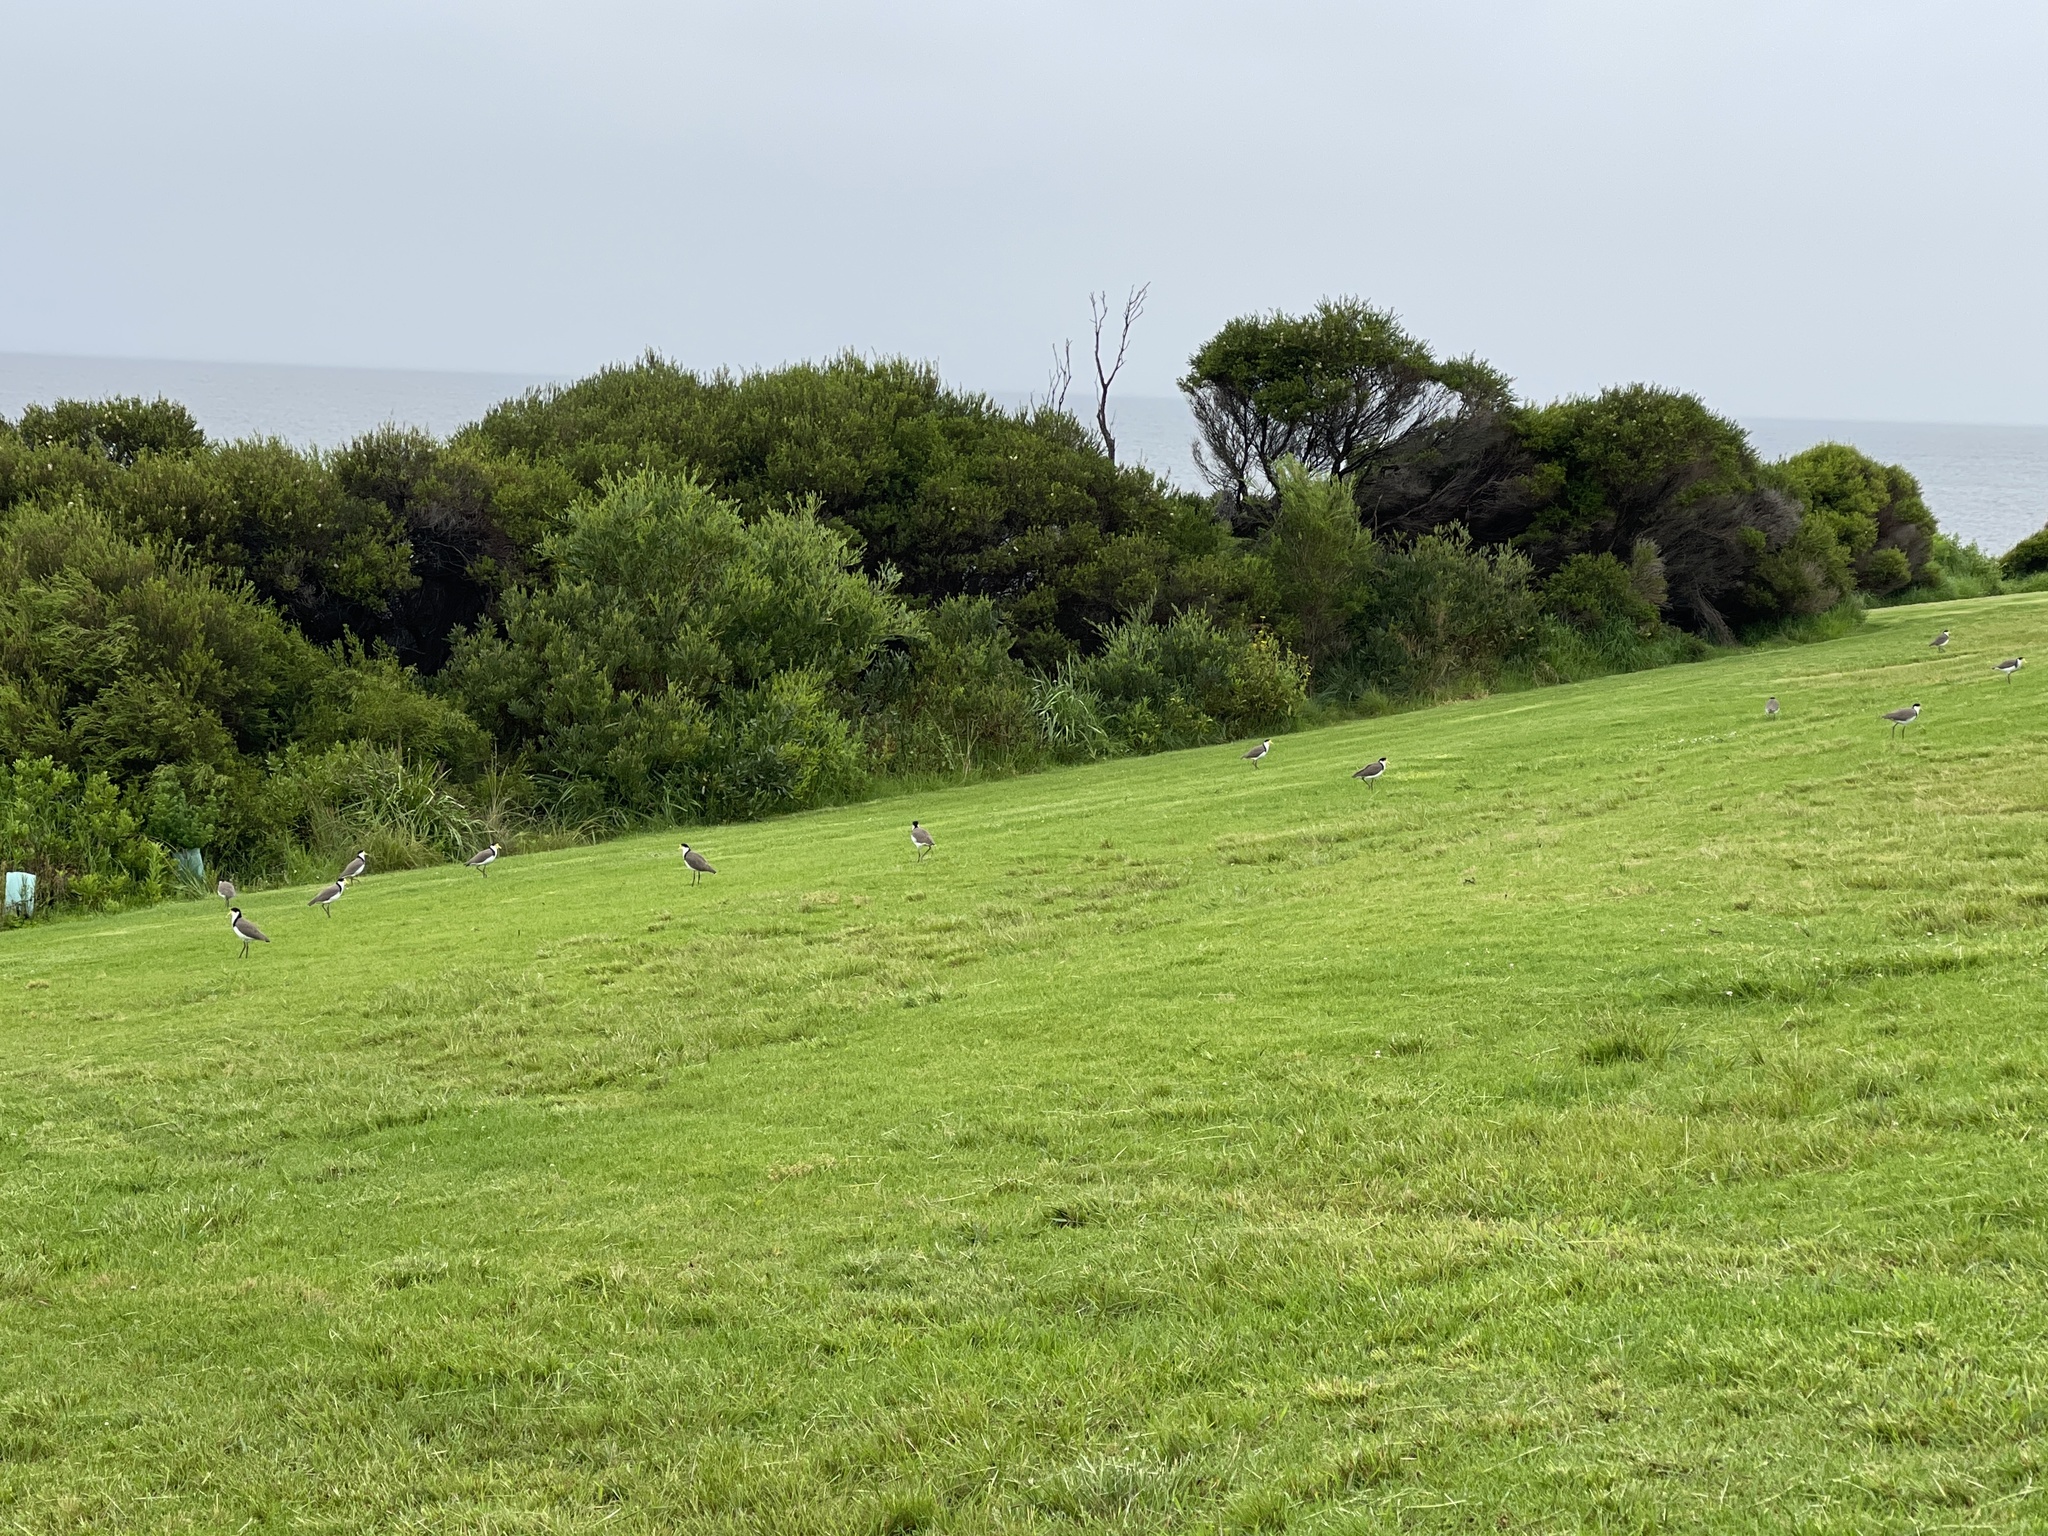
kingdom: Animalia
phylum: Chordata
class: Aves
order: Charadriiformes
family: Charadriidae
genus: Vanellus
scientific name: Vanellus miles
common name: Masked lapwing
